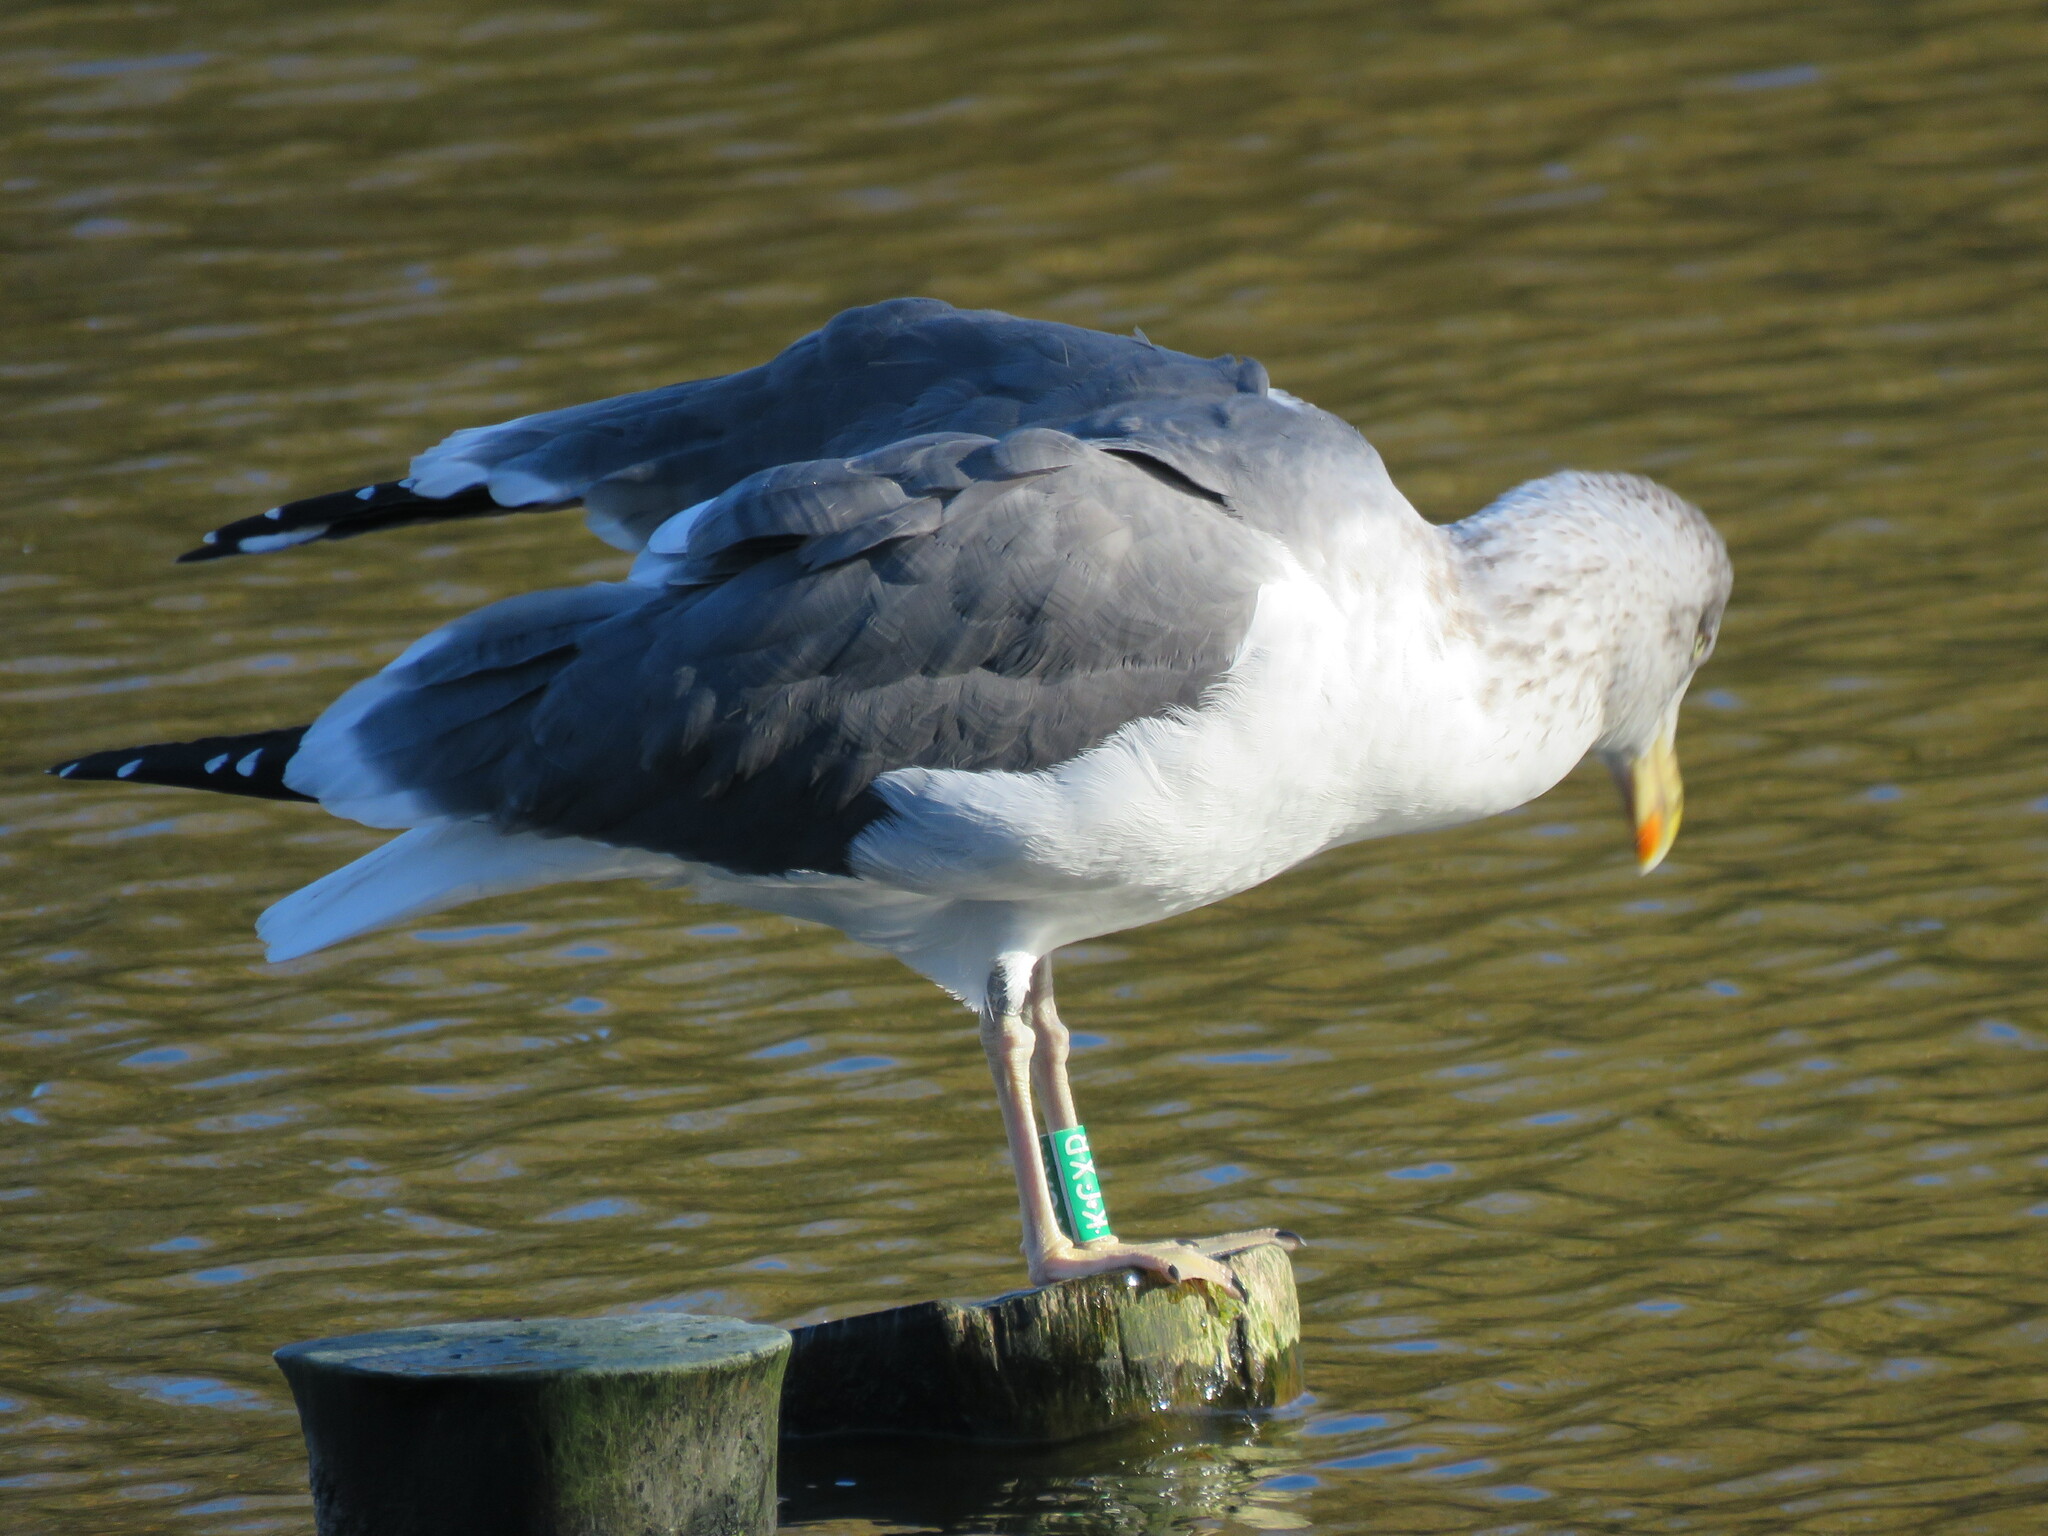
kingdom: Animalia
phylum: Chordata
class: Aves
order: Charadriiformes
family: Laridae
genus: Larus
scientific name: Larus fuscus
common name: Lesser black-backed gull
